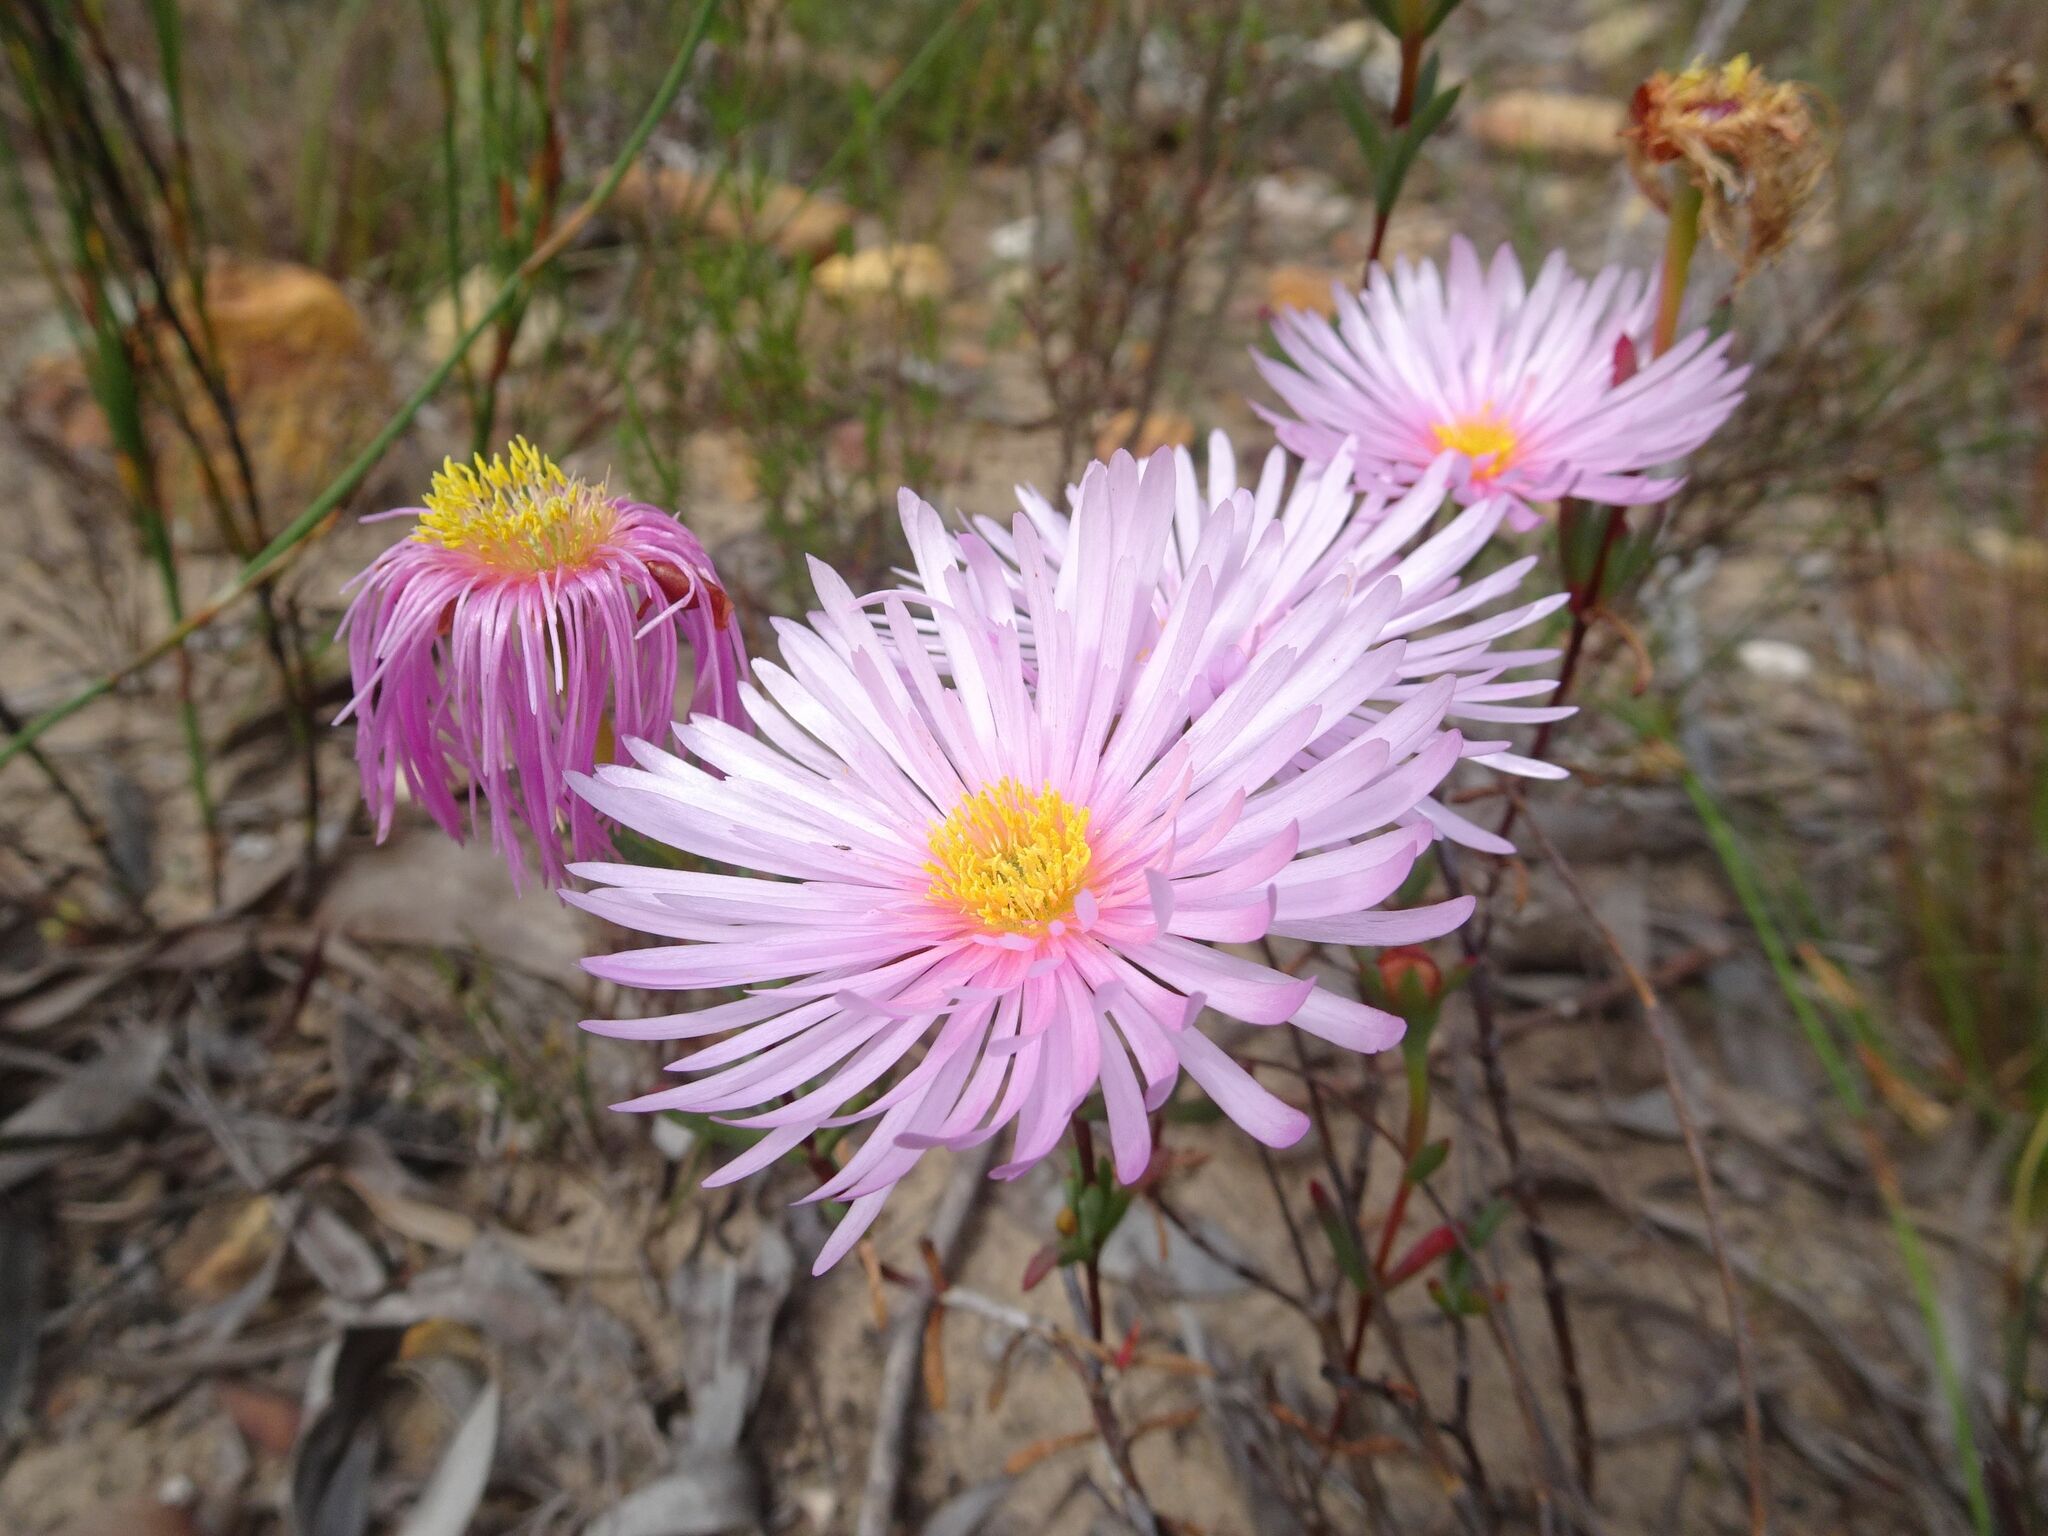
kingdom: Plantae
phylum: Tracheophyta
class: Magnoliopsida
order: Caryophyllales
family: Aizoaceae
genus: Lampranthus
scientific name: Lampranthus amabilis
